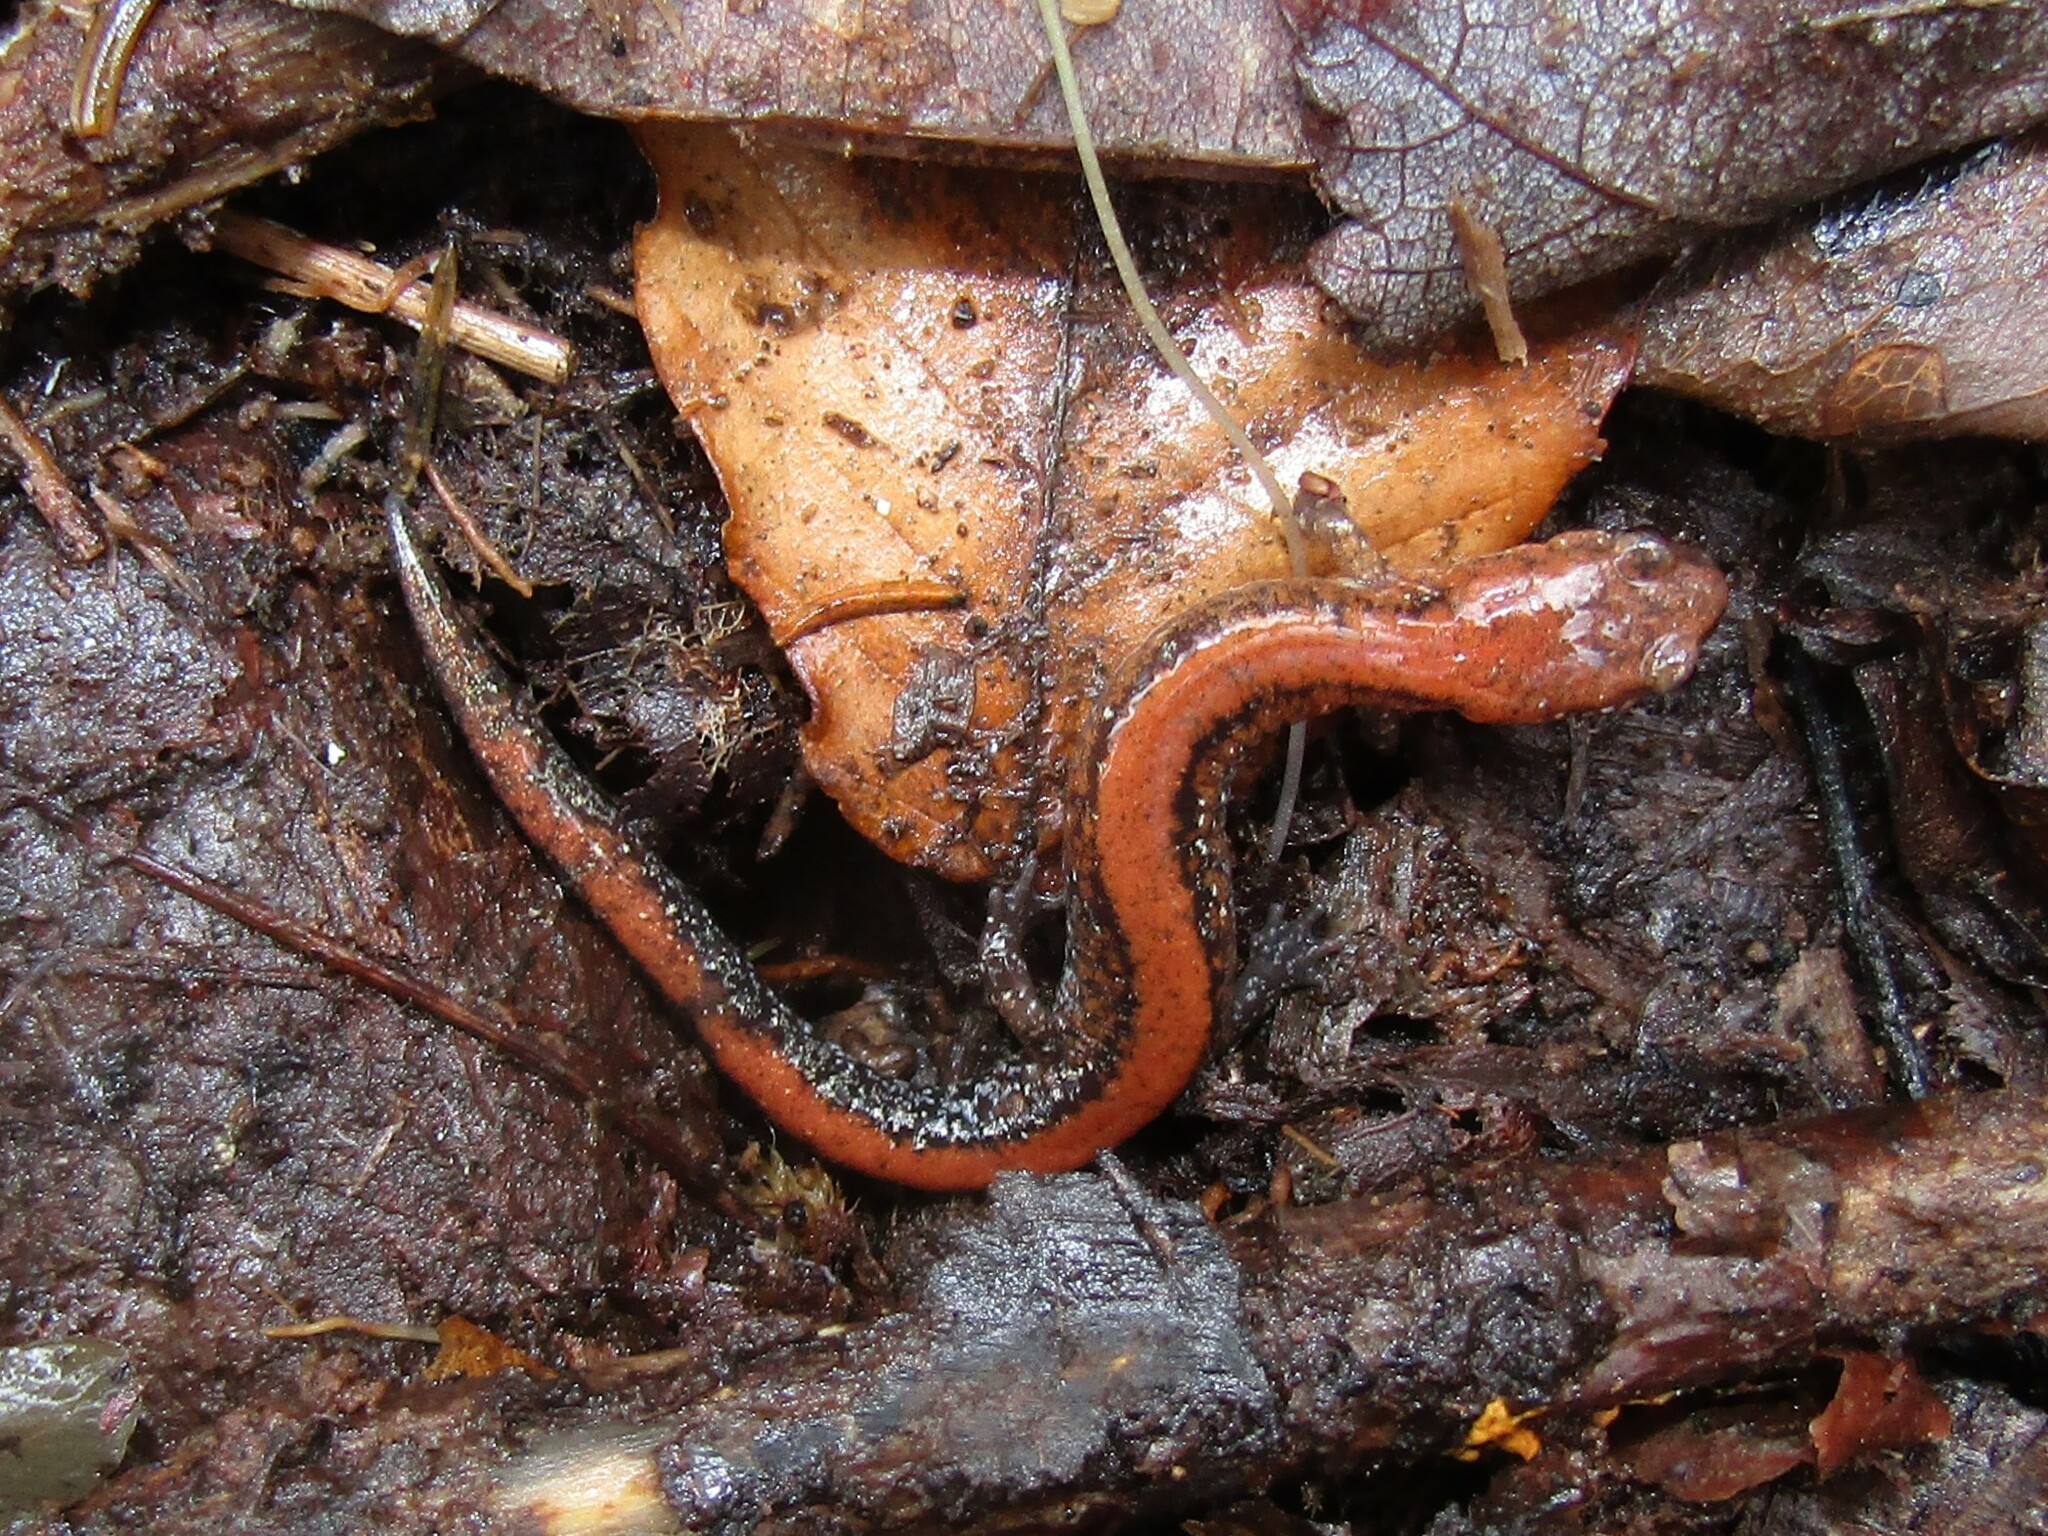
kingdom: Animalia
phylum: Chordata
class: Amphibia
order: Caudata
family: Plethodontidae
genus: Plethodon
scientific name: Plethodon cinereus
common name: Redback salamander
